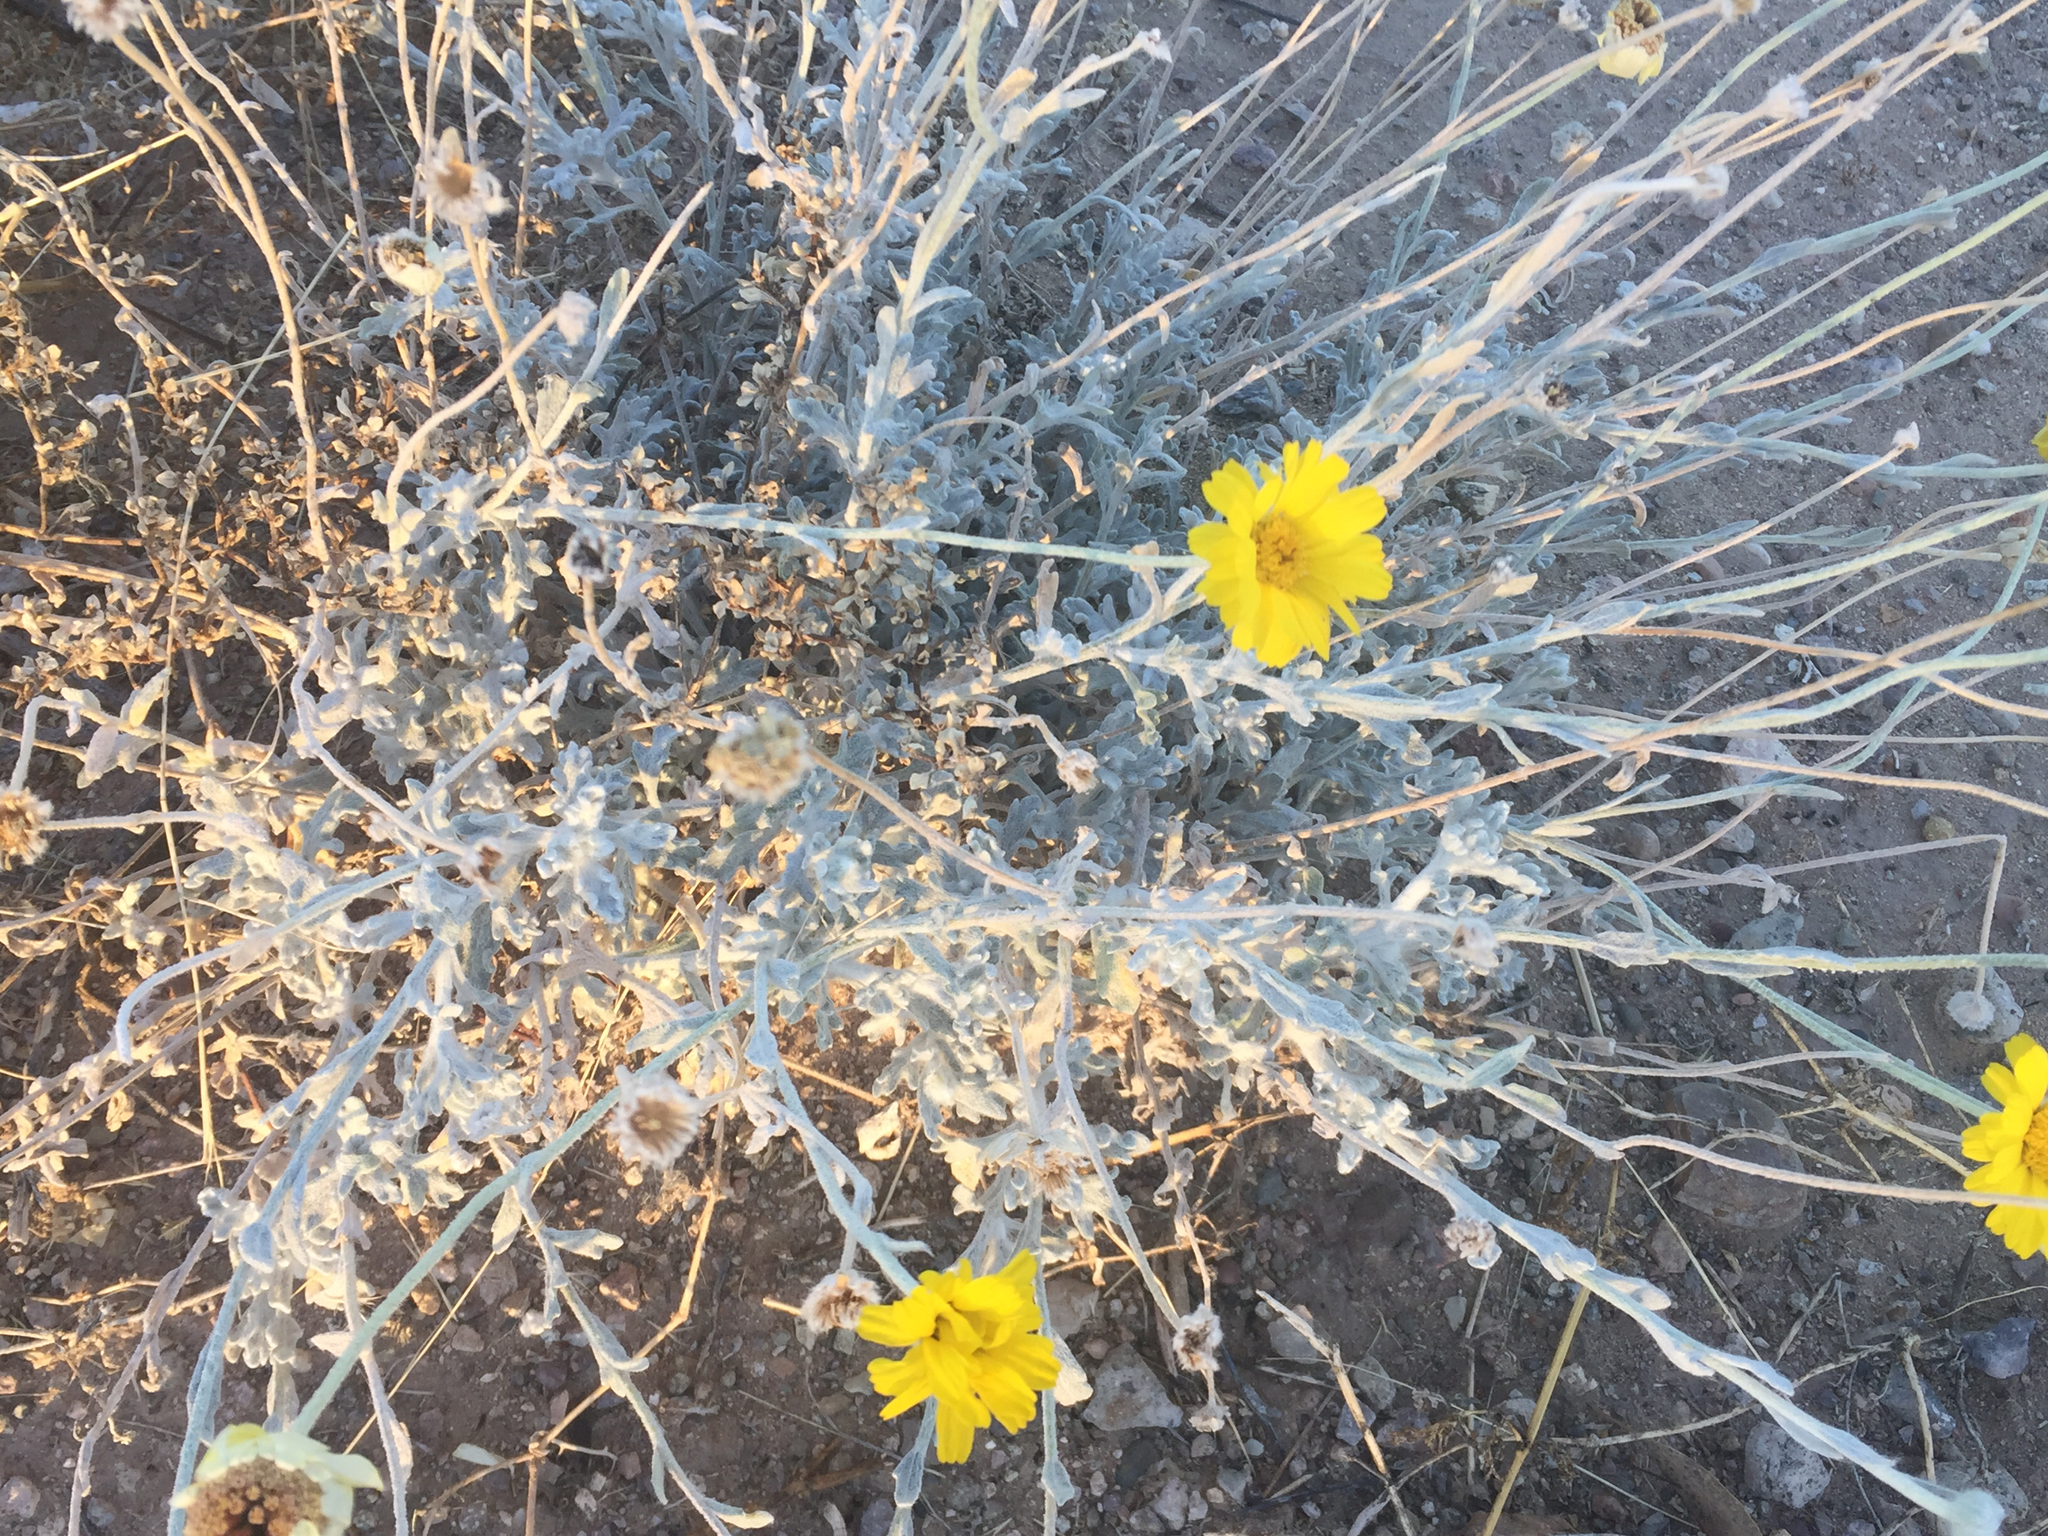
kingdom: Plantae
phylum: Tracheophyta
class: Magnoliopsida
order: Asterales
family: Asteraceae
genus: Baileya
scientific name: Baileya multiradiata
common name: Desert-marigold
